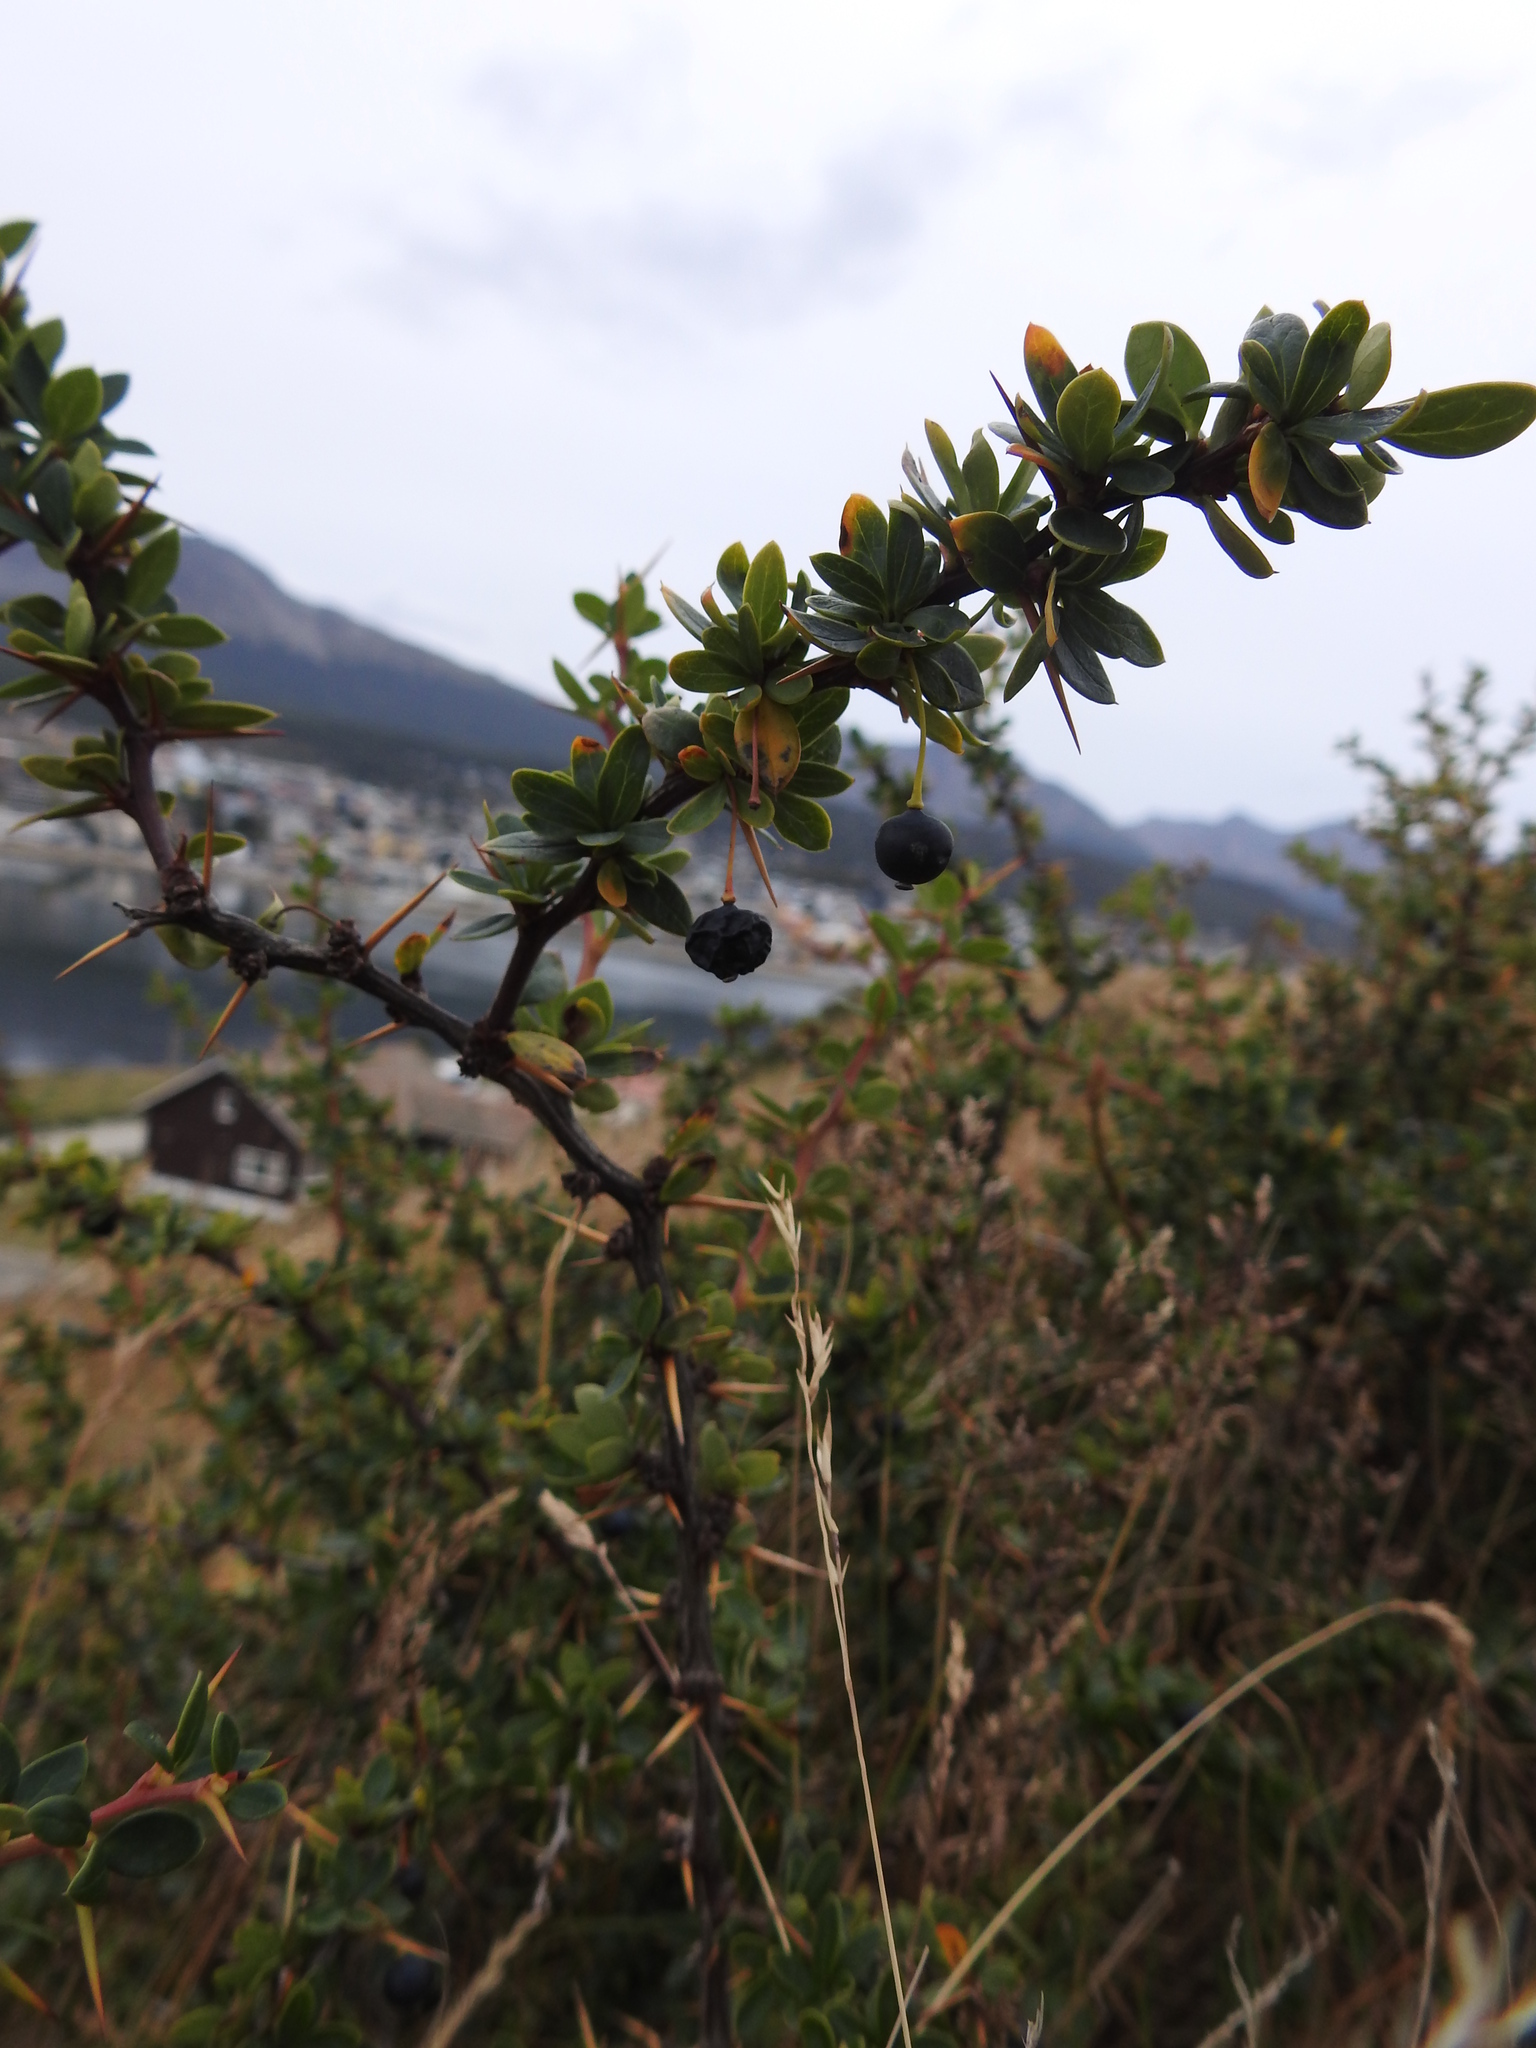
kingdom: Plantae
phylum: Tracheophyta
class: Magnoliopsida
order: Ranunculales
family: Berberidaceae
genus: Berberis
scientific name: Berberis microphylla
